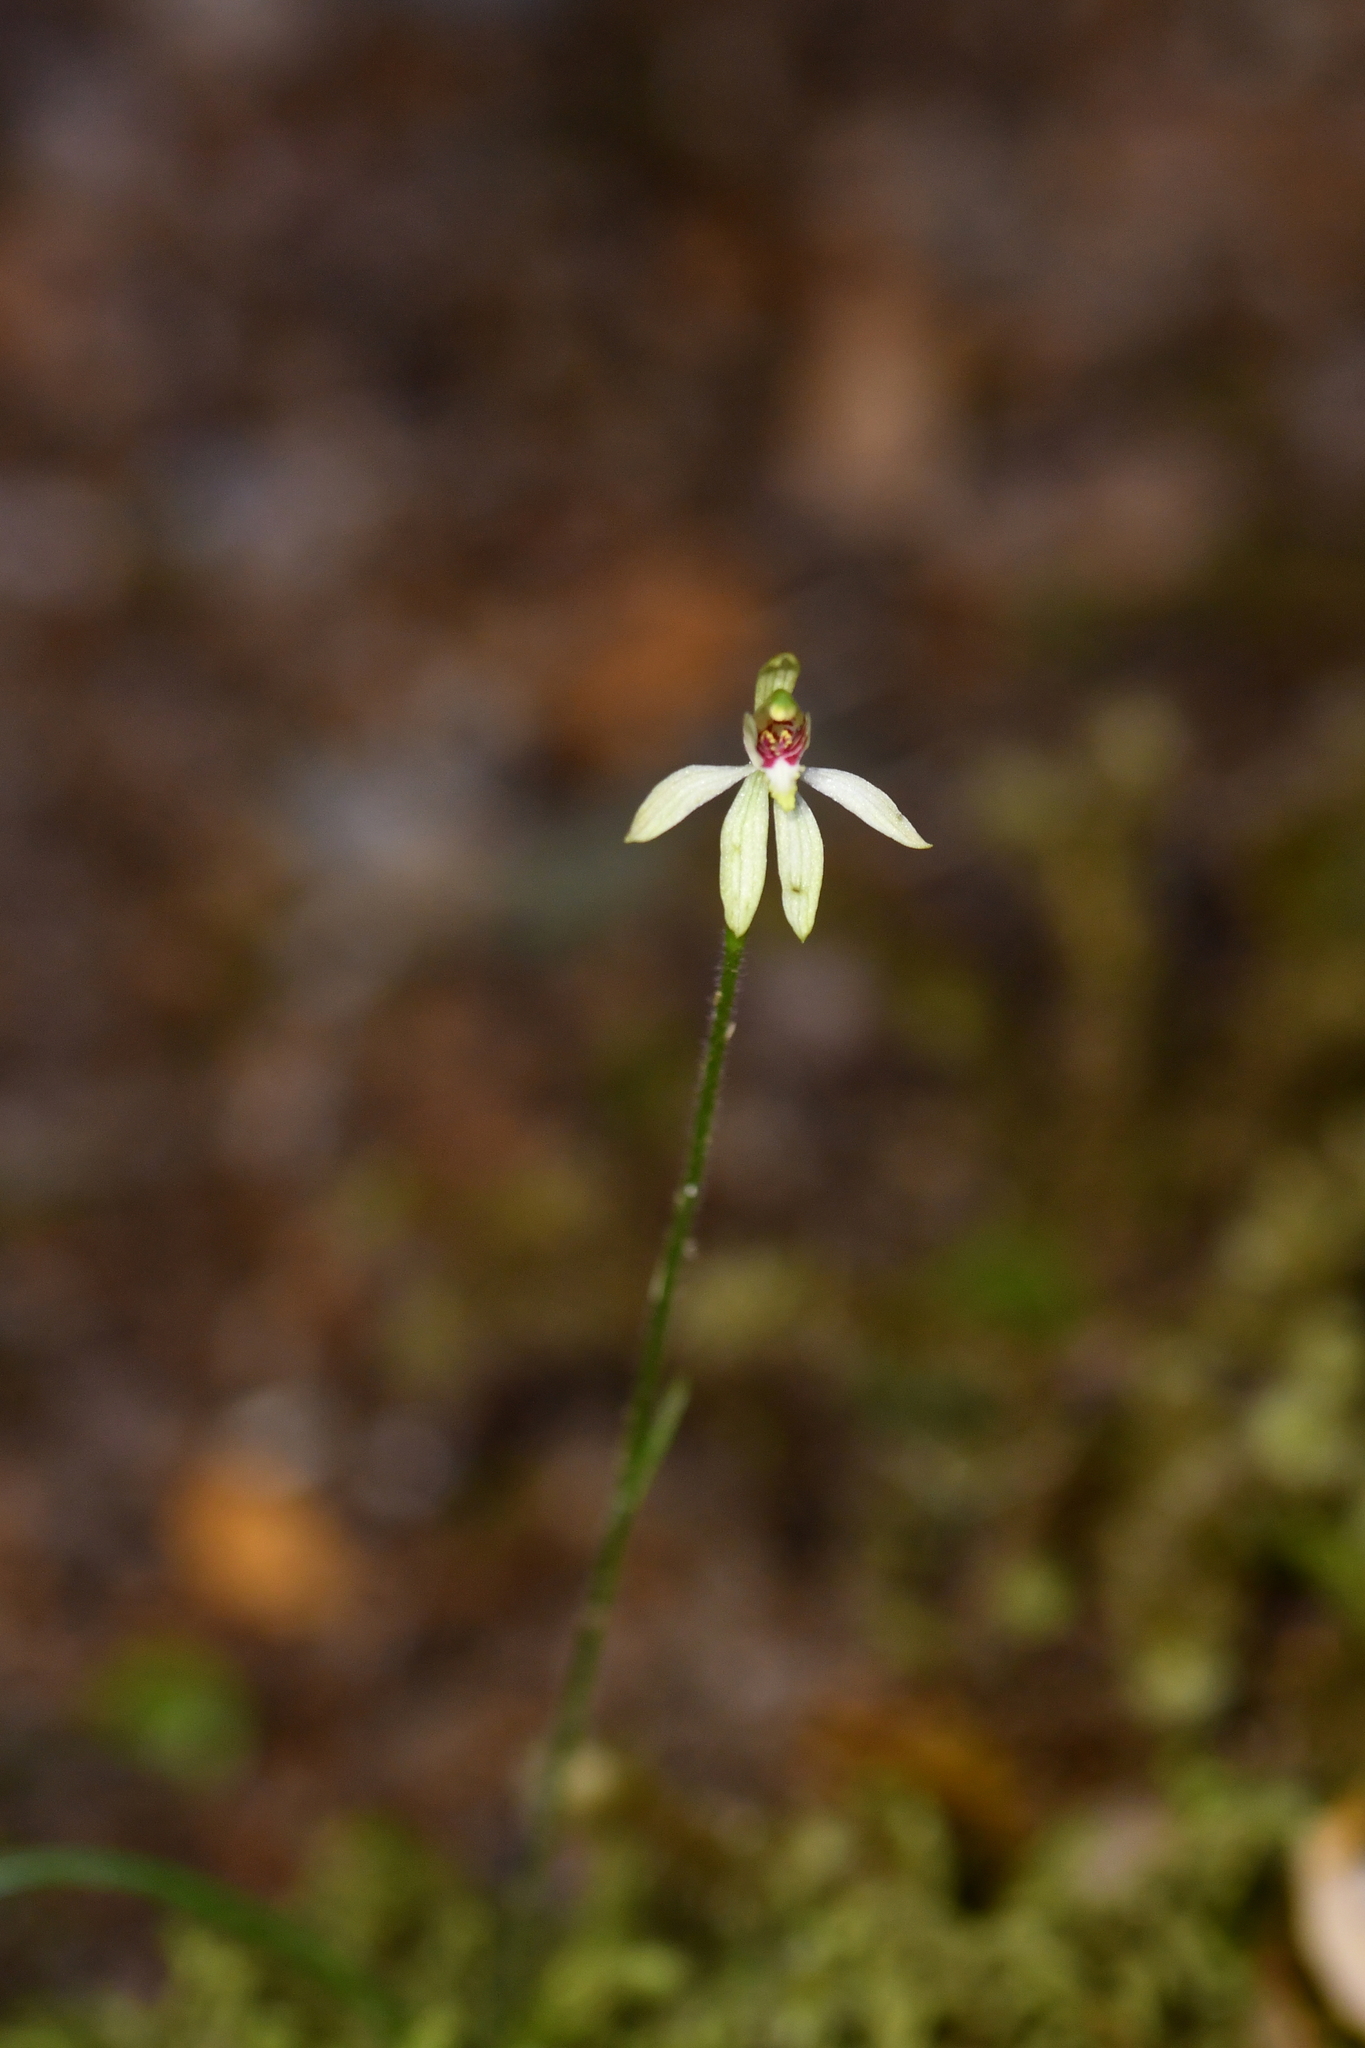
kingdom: Plantae
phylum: Tracheophyta
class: Liliopsida
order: Asparagales
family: Orchidaceae
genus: Caladenia
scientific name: Caladenia chlorostyla
